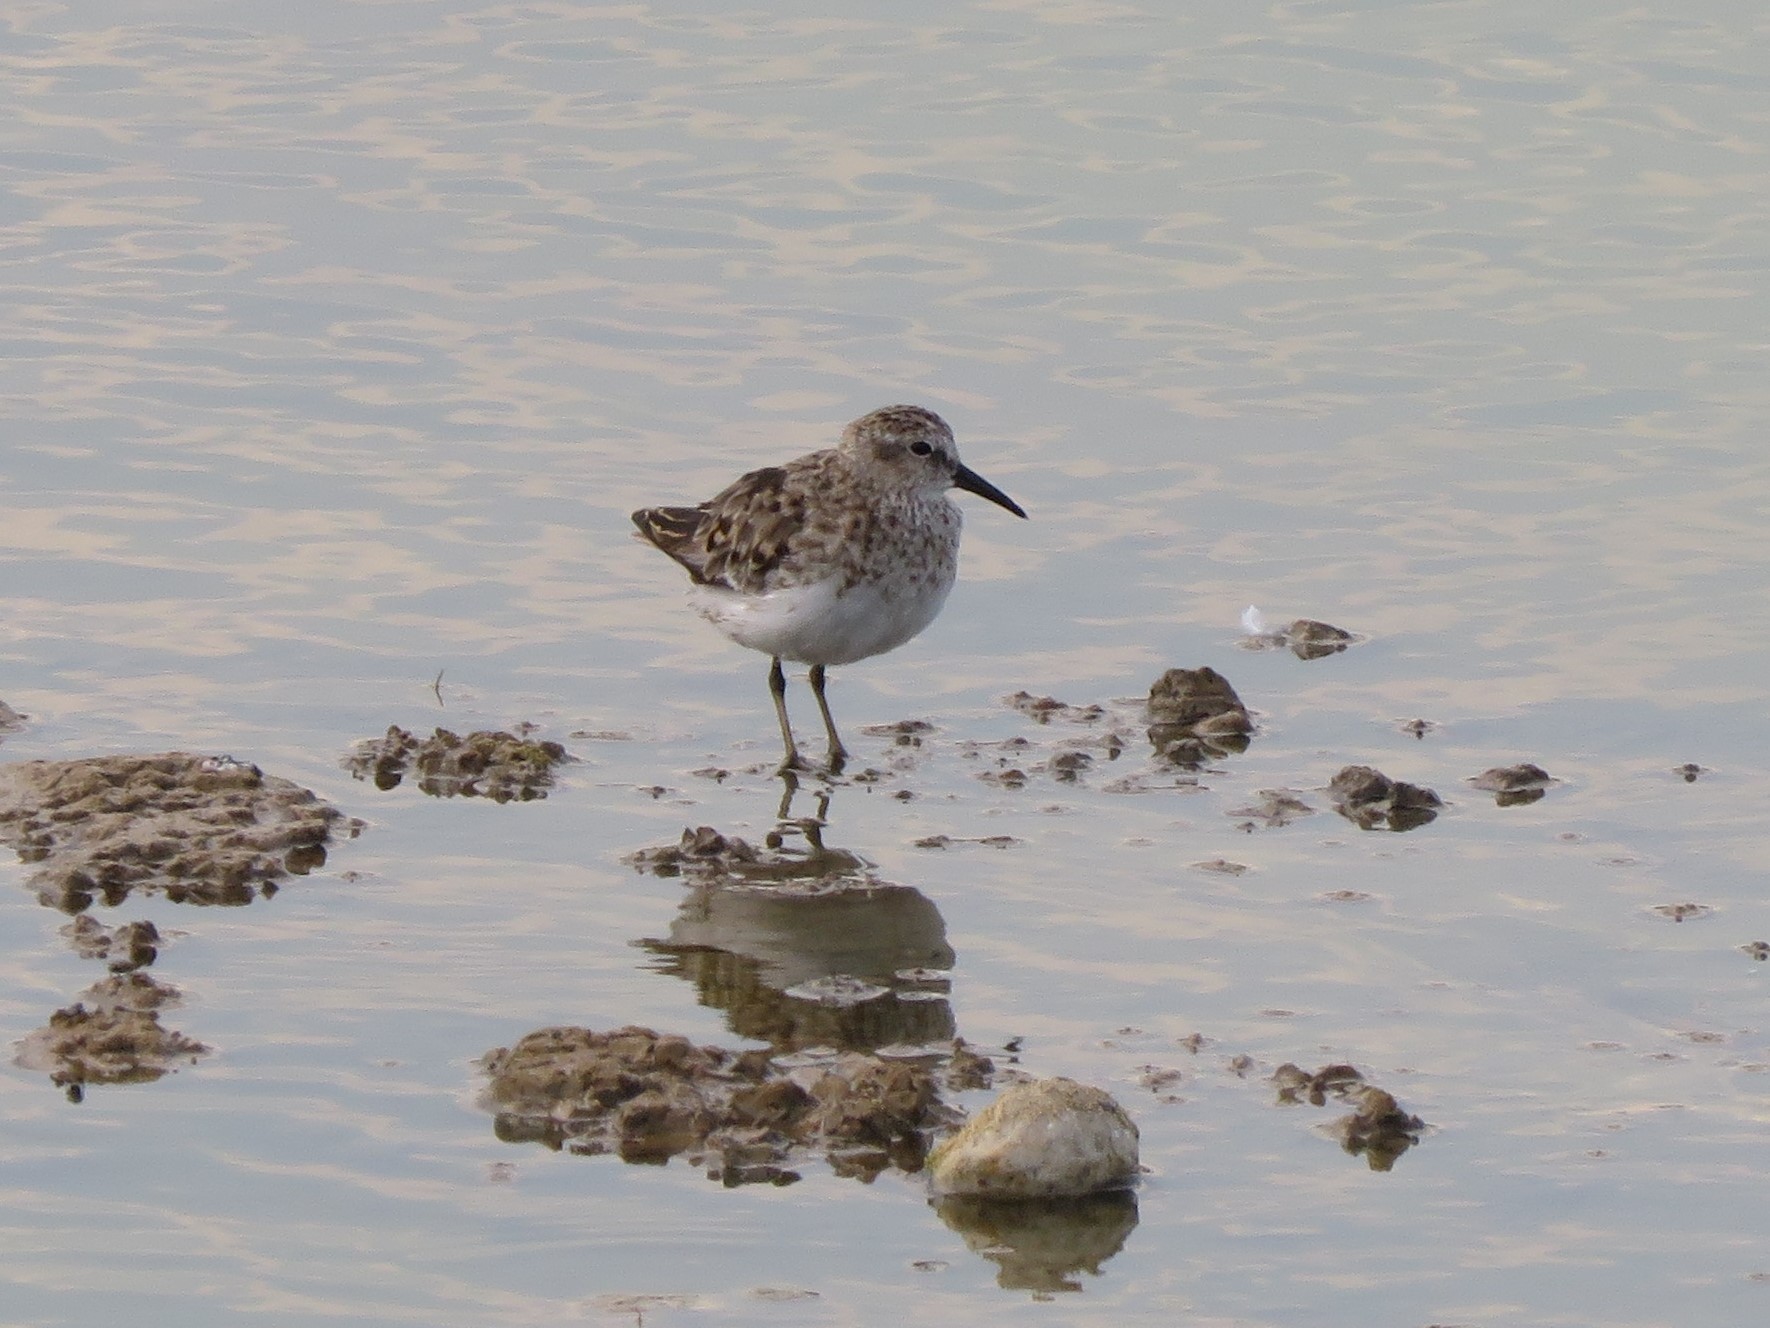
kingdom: Animalia
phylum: Chordata
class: Aves
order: Charadriiformes
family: Scolopacidae
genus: Calidris
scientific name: Calidris minutilla
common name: Least sandpiper
